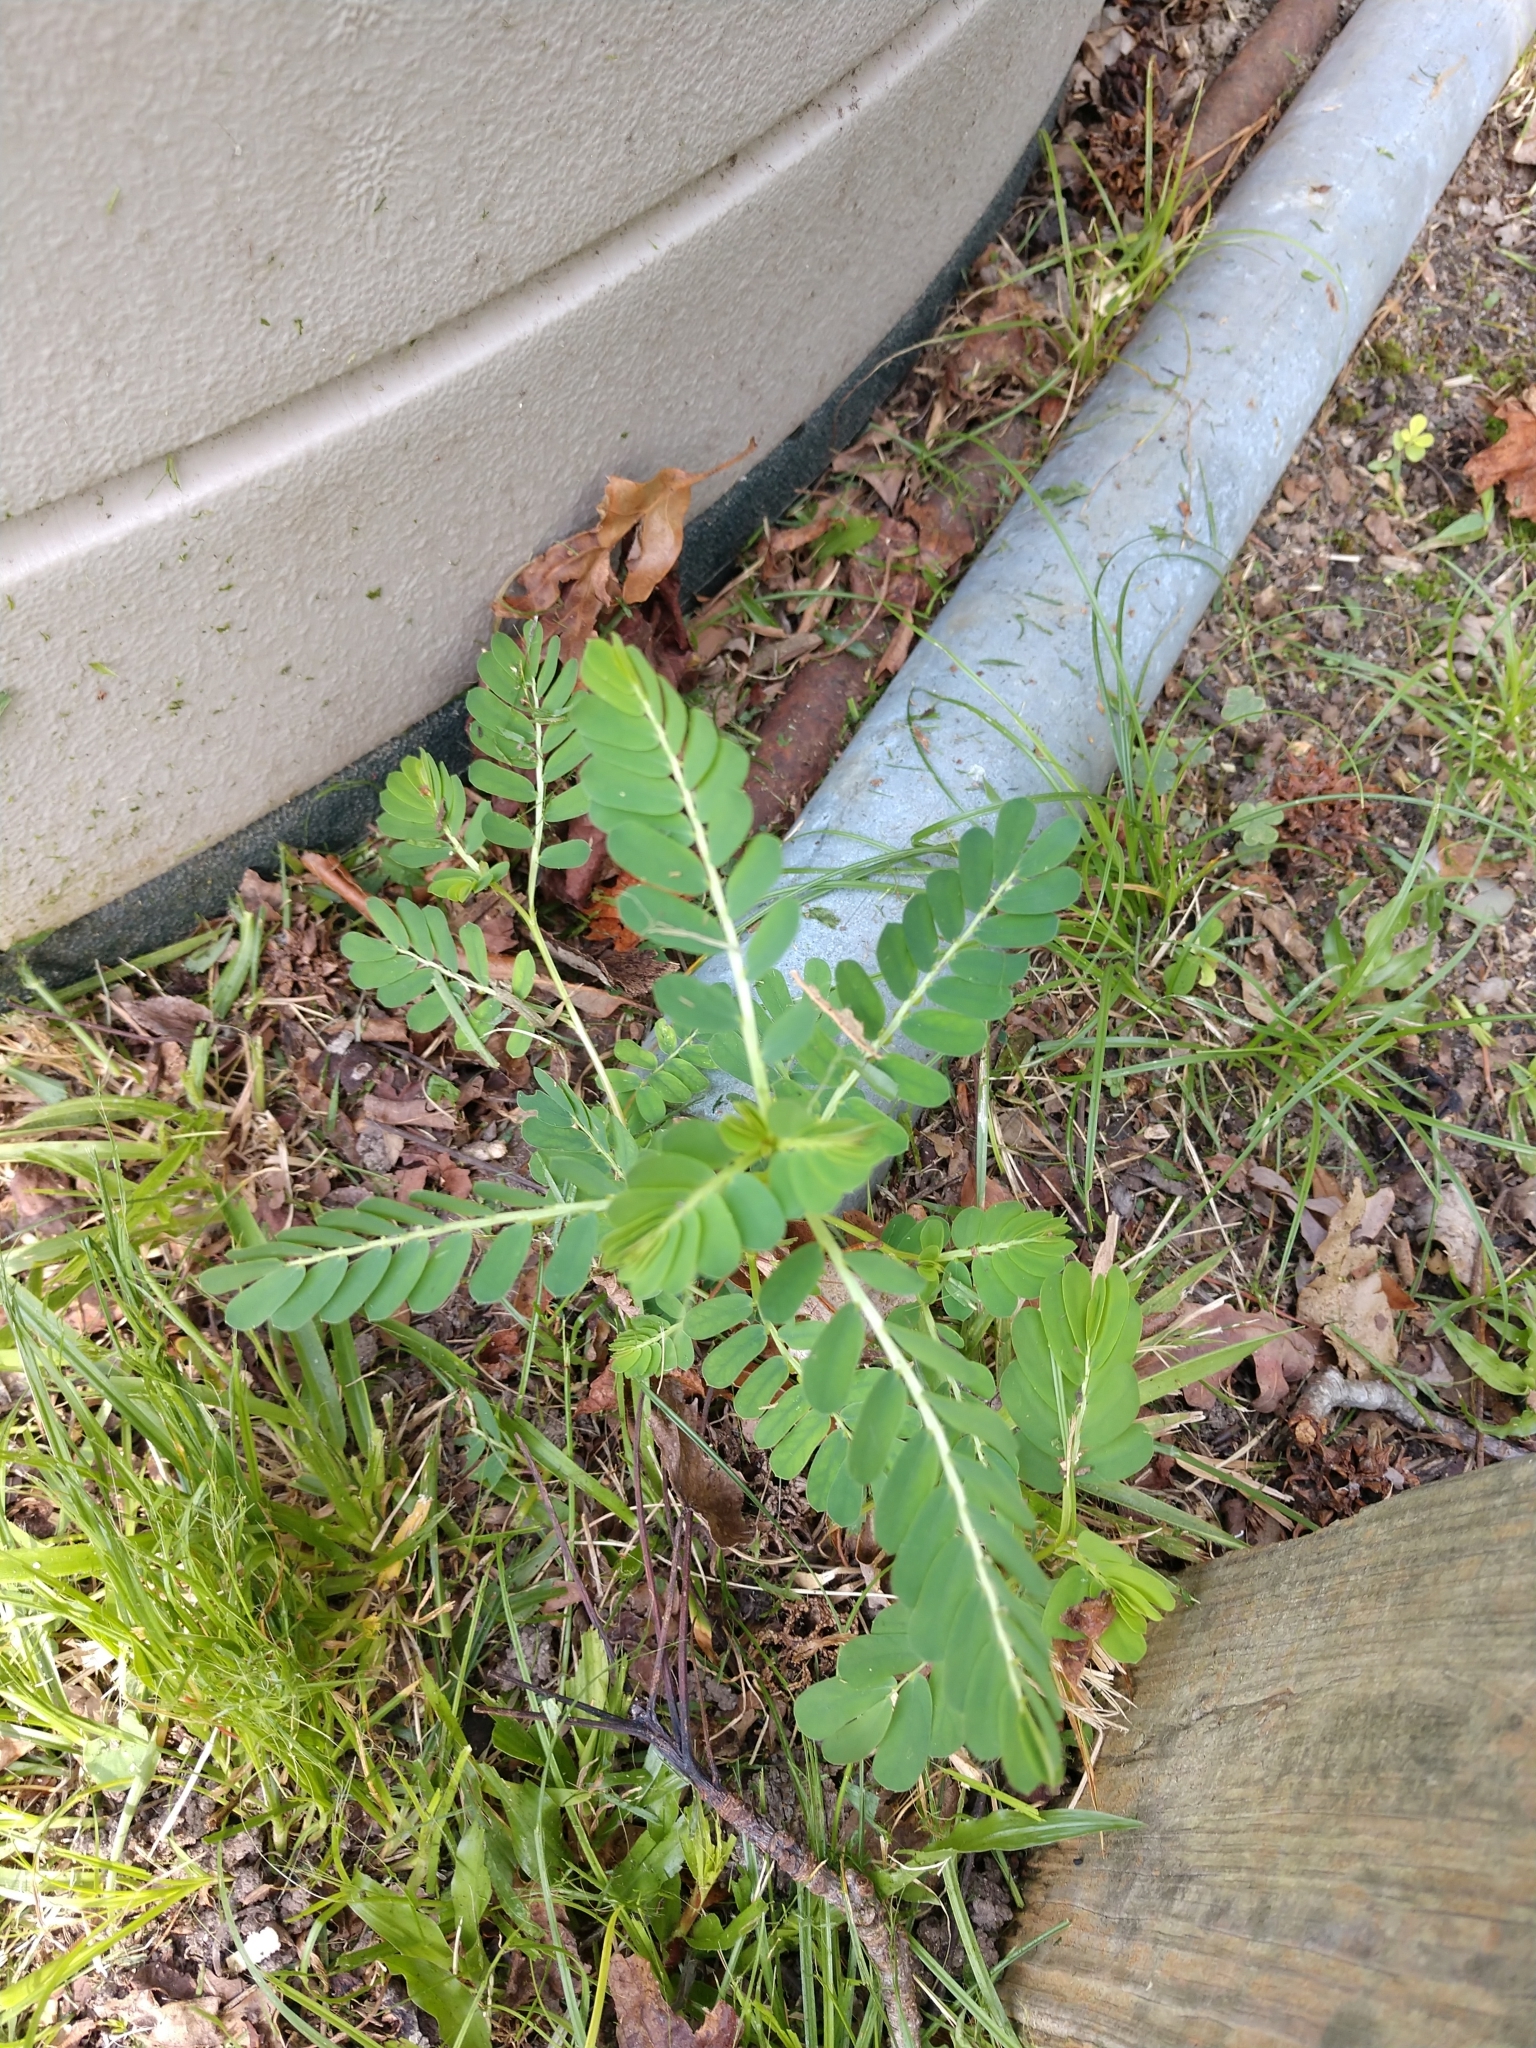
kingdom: Plantae
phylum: Tracheophyta
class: Magnoliopsida
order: Malpighiales
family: Phyllanthaceae
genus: Phyllanthus
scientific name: Phyllanthus urinaria
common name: Chamber bitter
